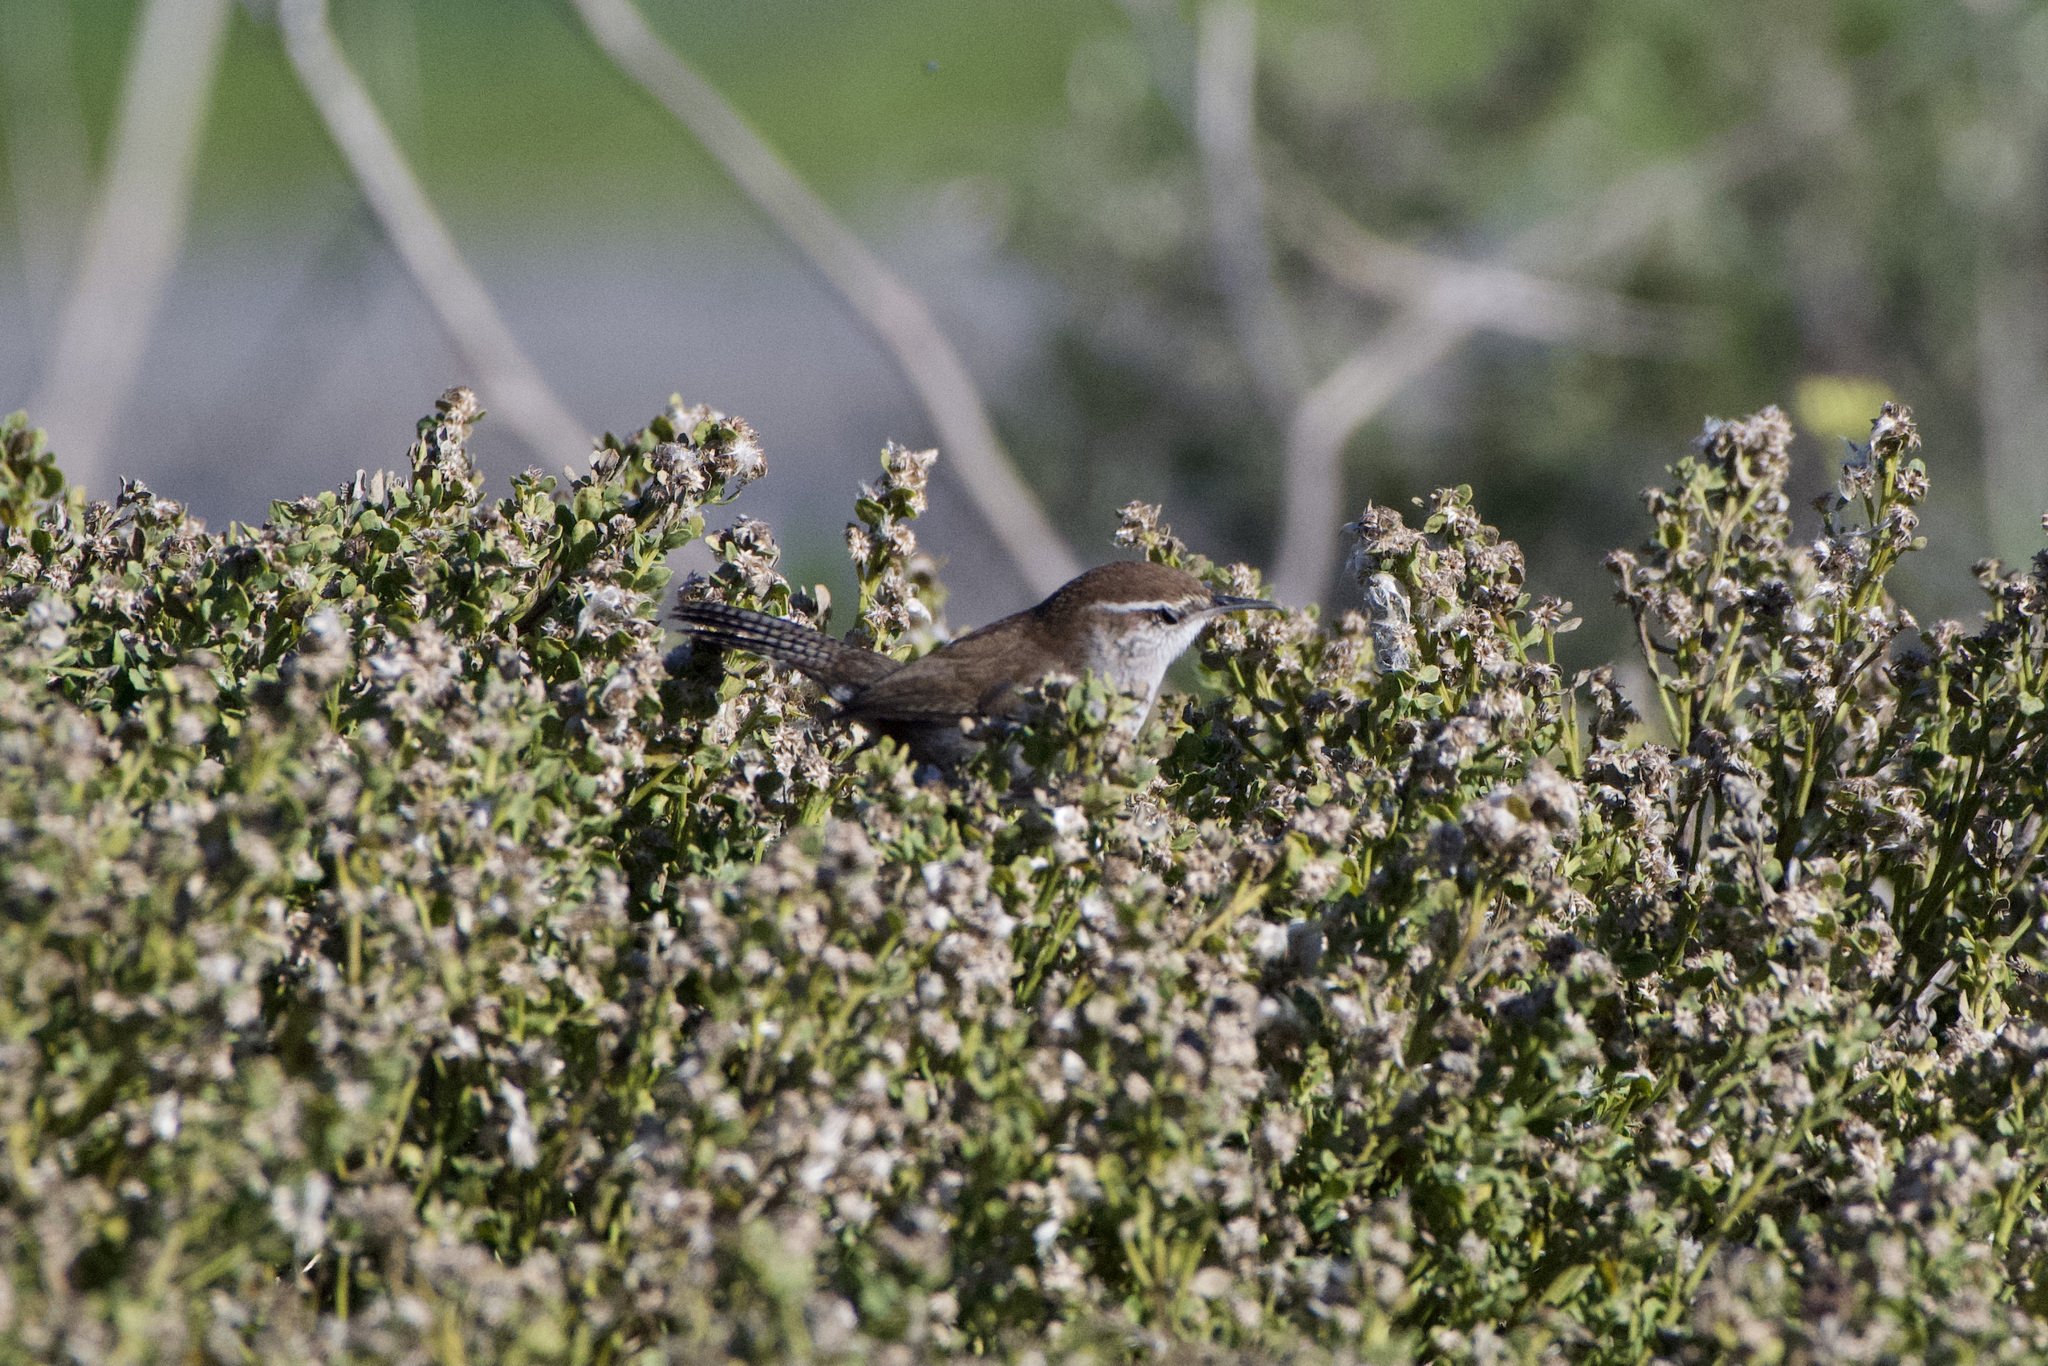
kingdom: Animalia
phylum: Chordata
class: Aves
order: Passeriformes
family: Troglodytidae
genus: Thryomanes
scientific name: Thryomanes bewickii
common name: Bewick's wren
